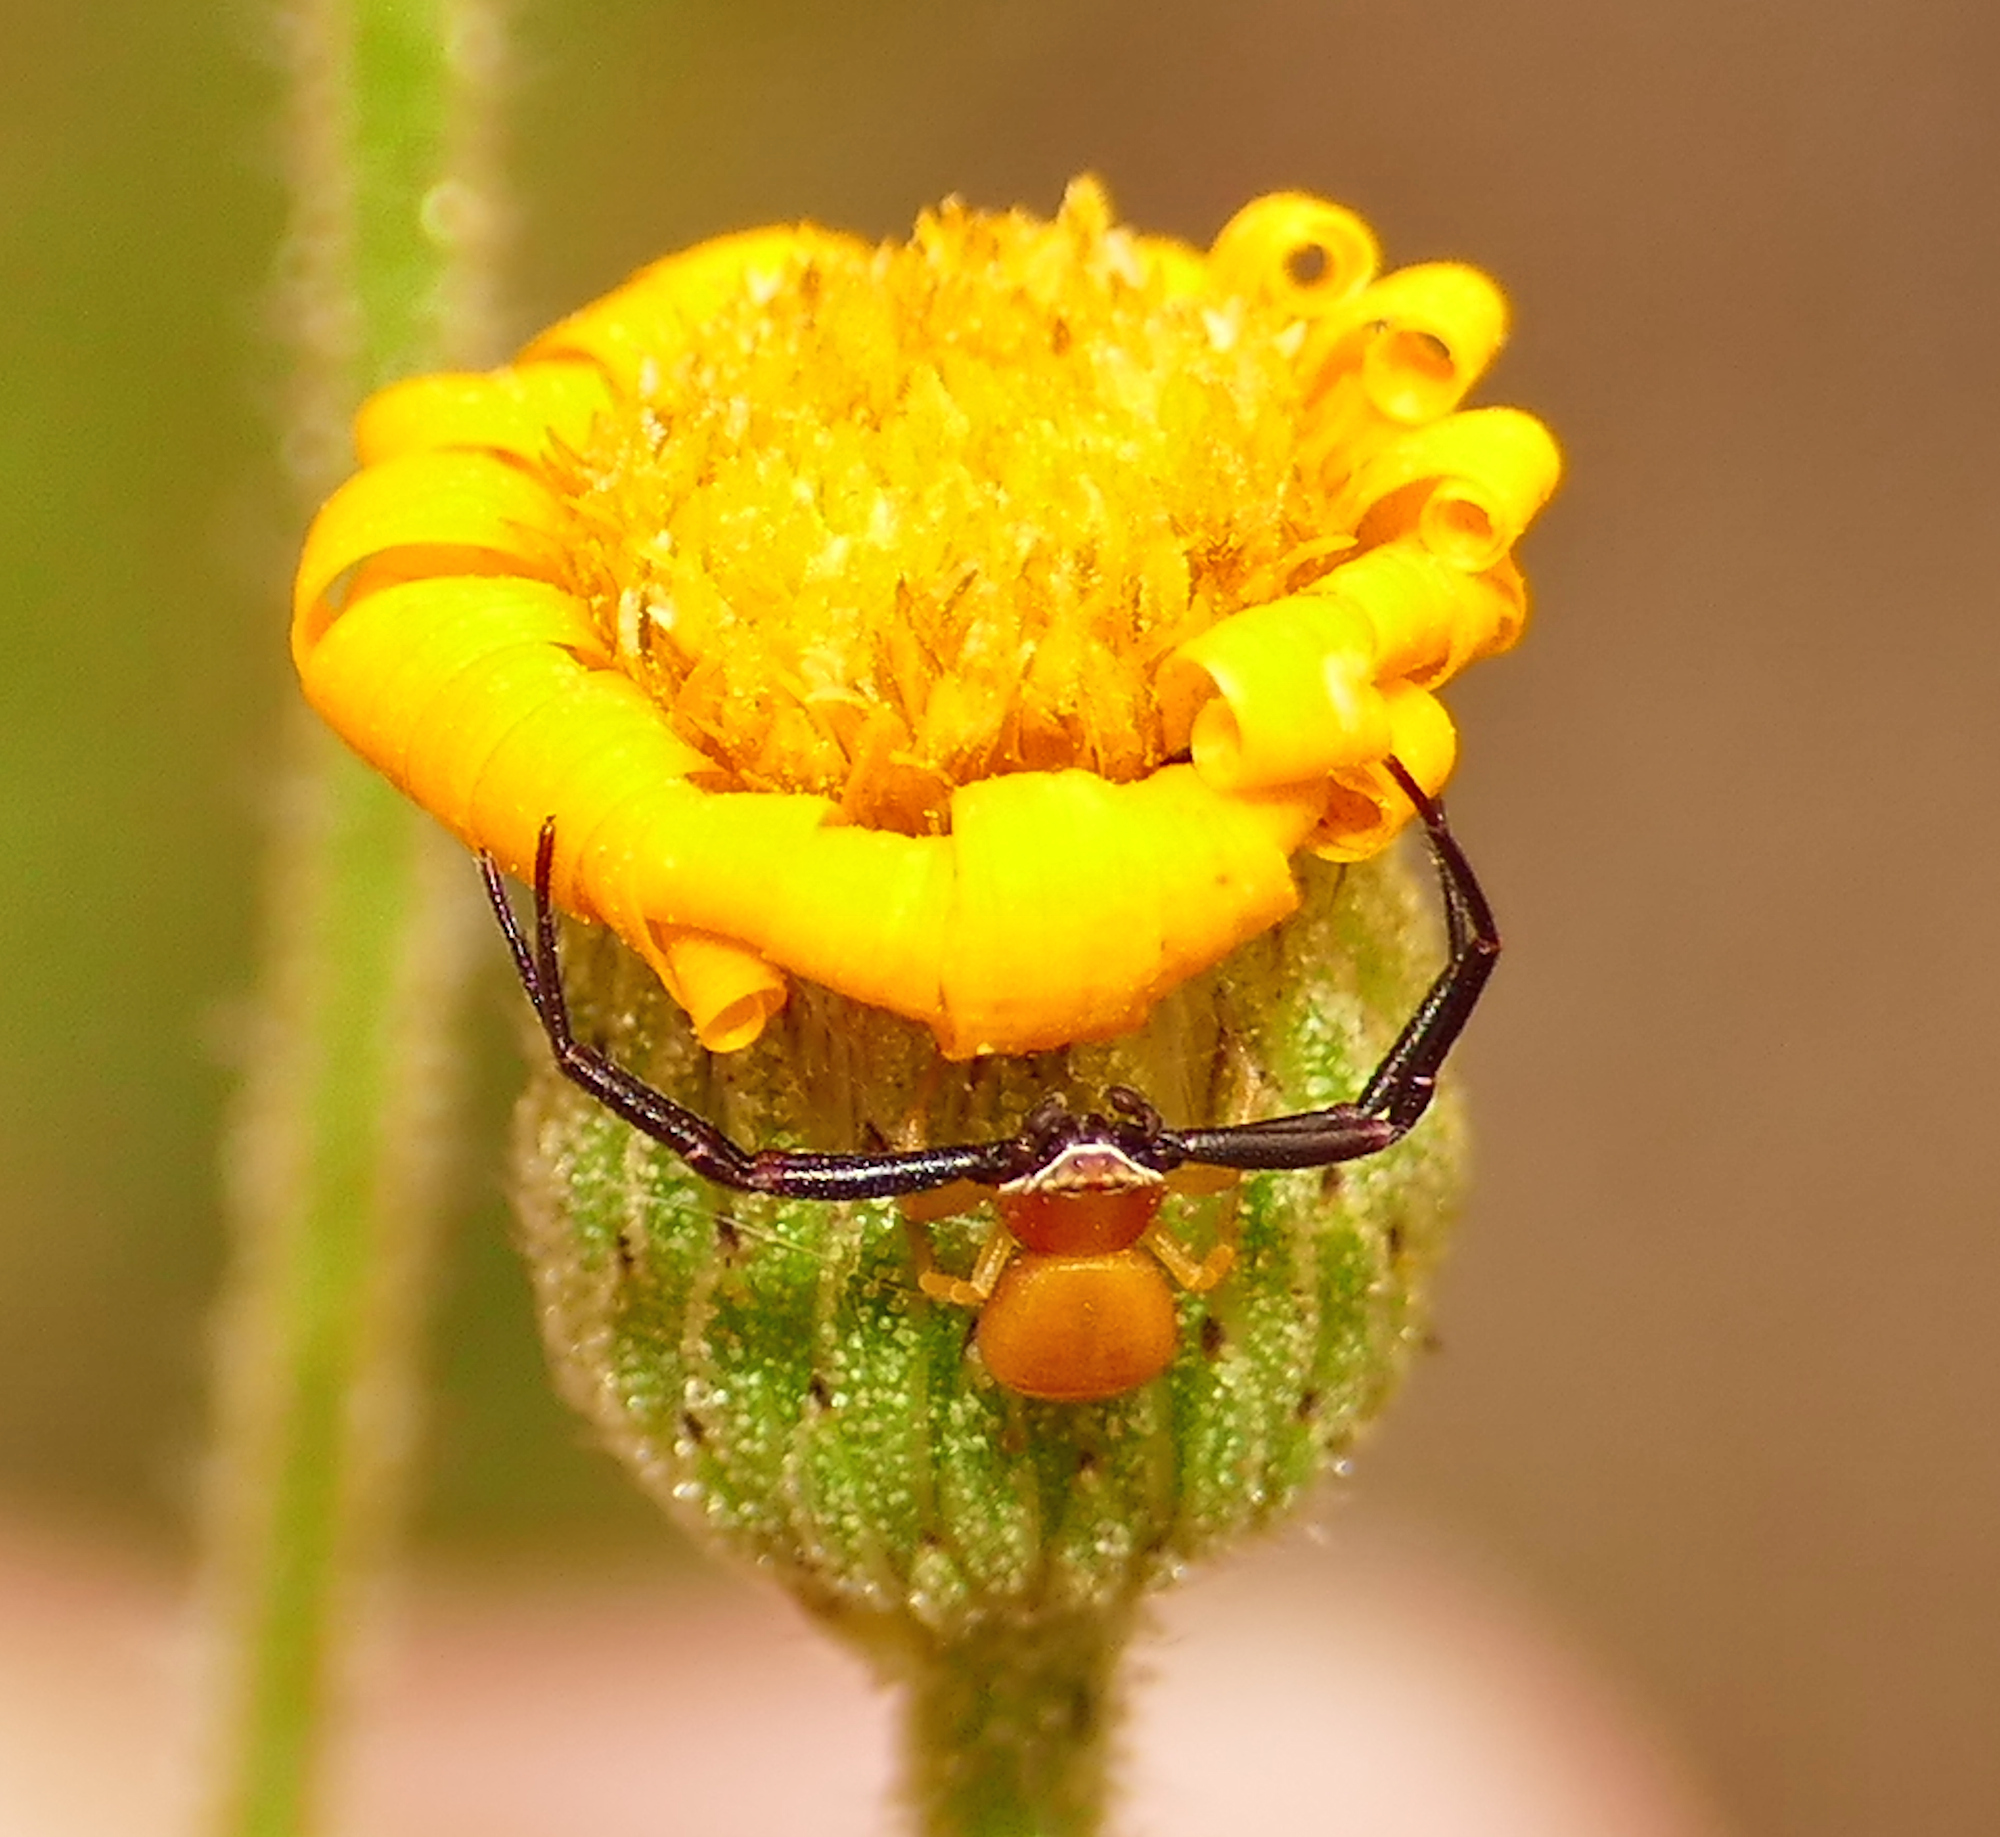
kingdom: Animalia
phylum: Arthropoda
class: Arachnida
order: Araneae
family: Thomisidae
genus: Misumenoides
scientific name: Misumenoides formosipes
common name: White-banded crab spider
